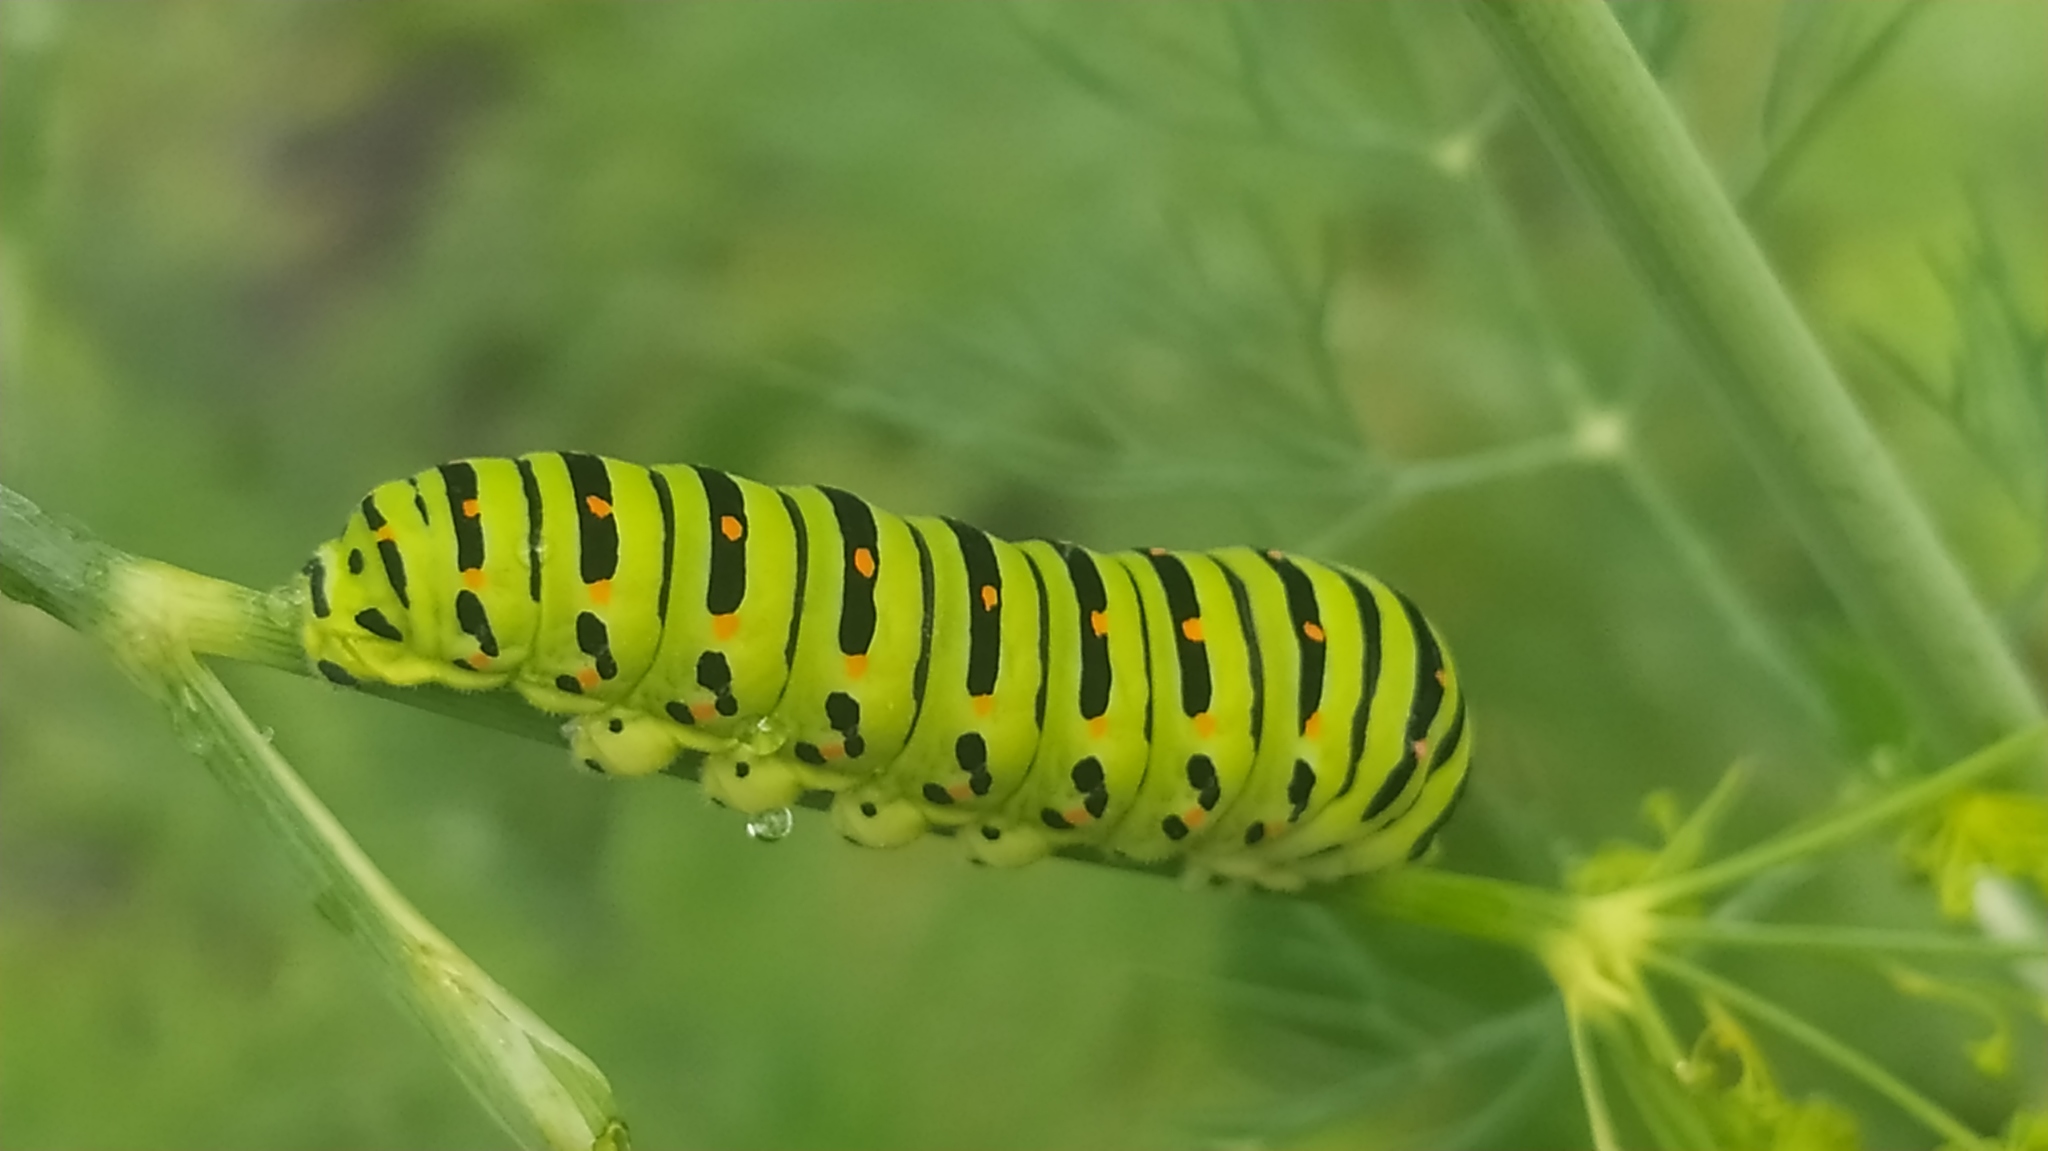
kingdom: Animalia
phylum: Arthropoda
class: Insecta
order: Lepidoptera
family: Papilionidae
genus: Papilio
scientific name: Papilio machaon
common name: Swallowtail
